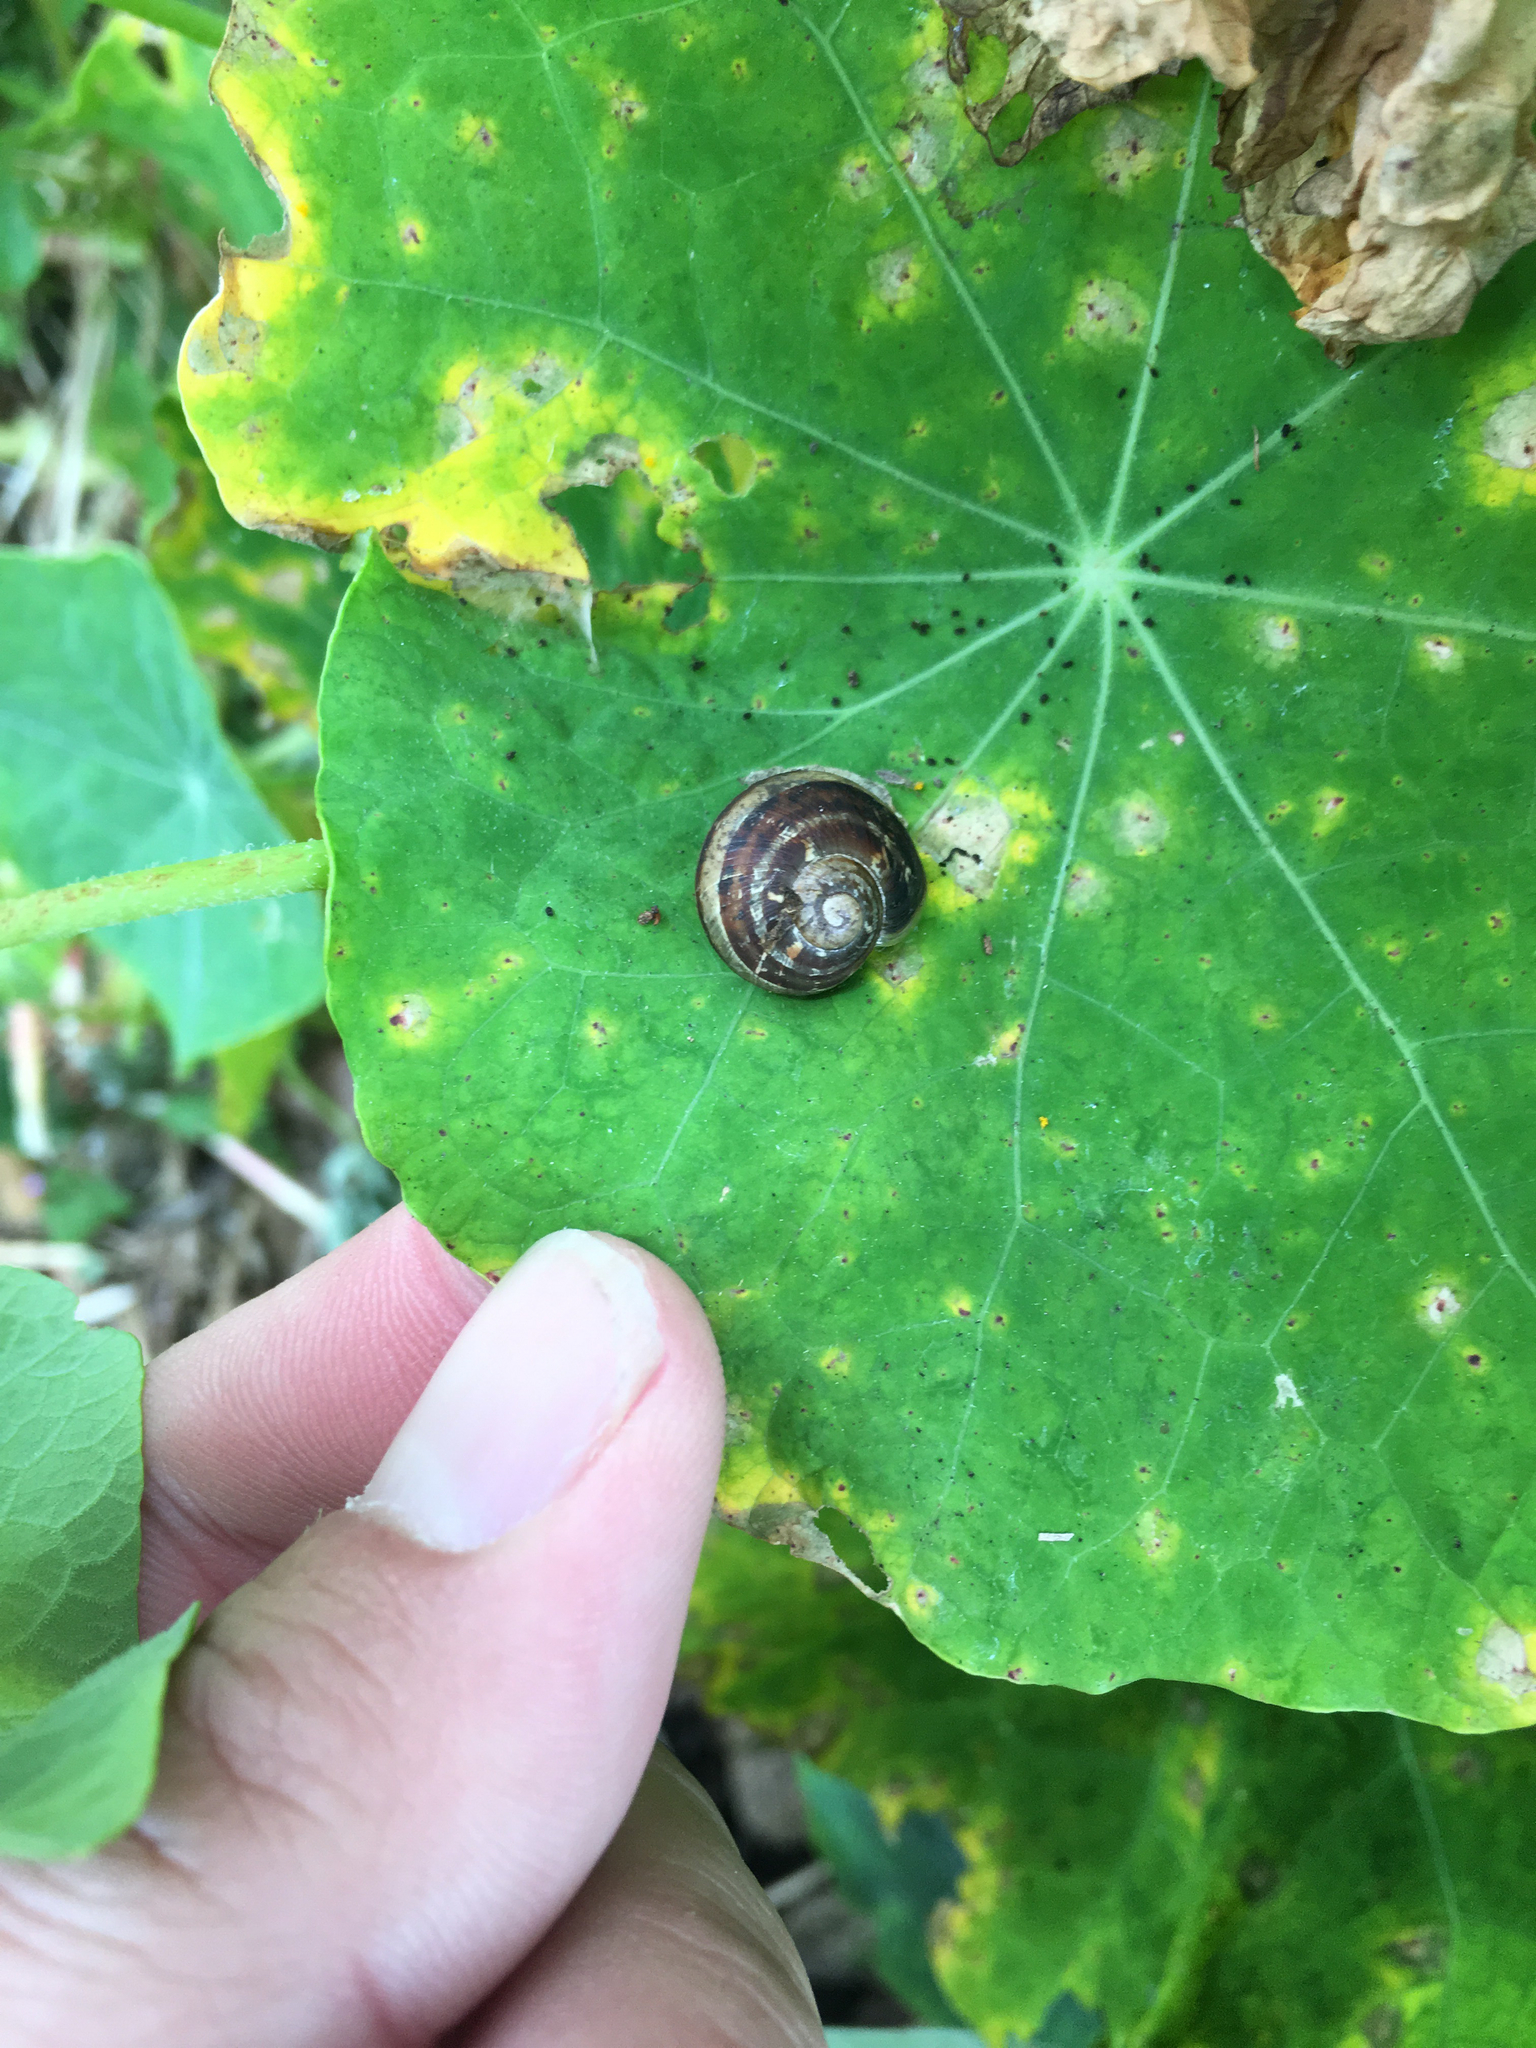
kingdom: Animalia
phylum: Mollusca
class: Gastropoda
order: Stylommatophora
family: Helicidae
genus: Cornu
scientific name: Cornu aspersum
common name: Brown garden snail
